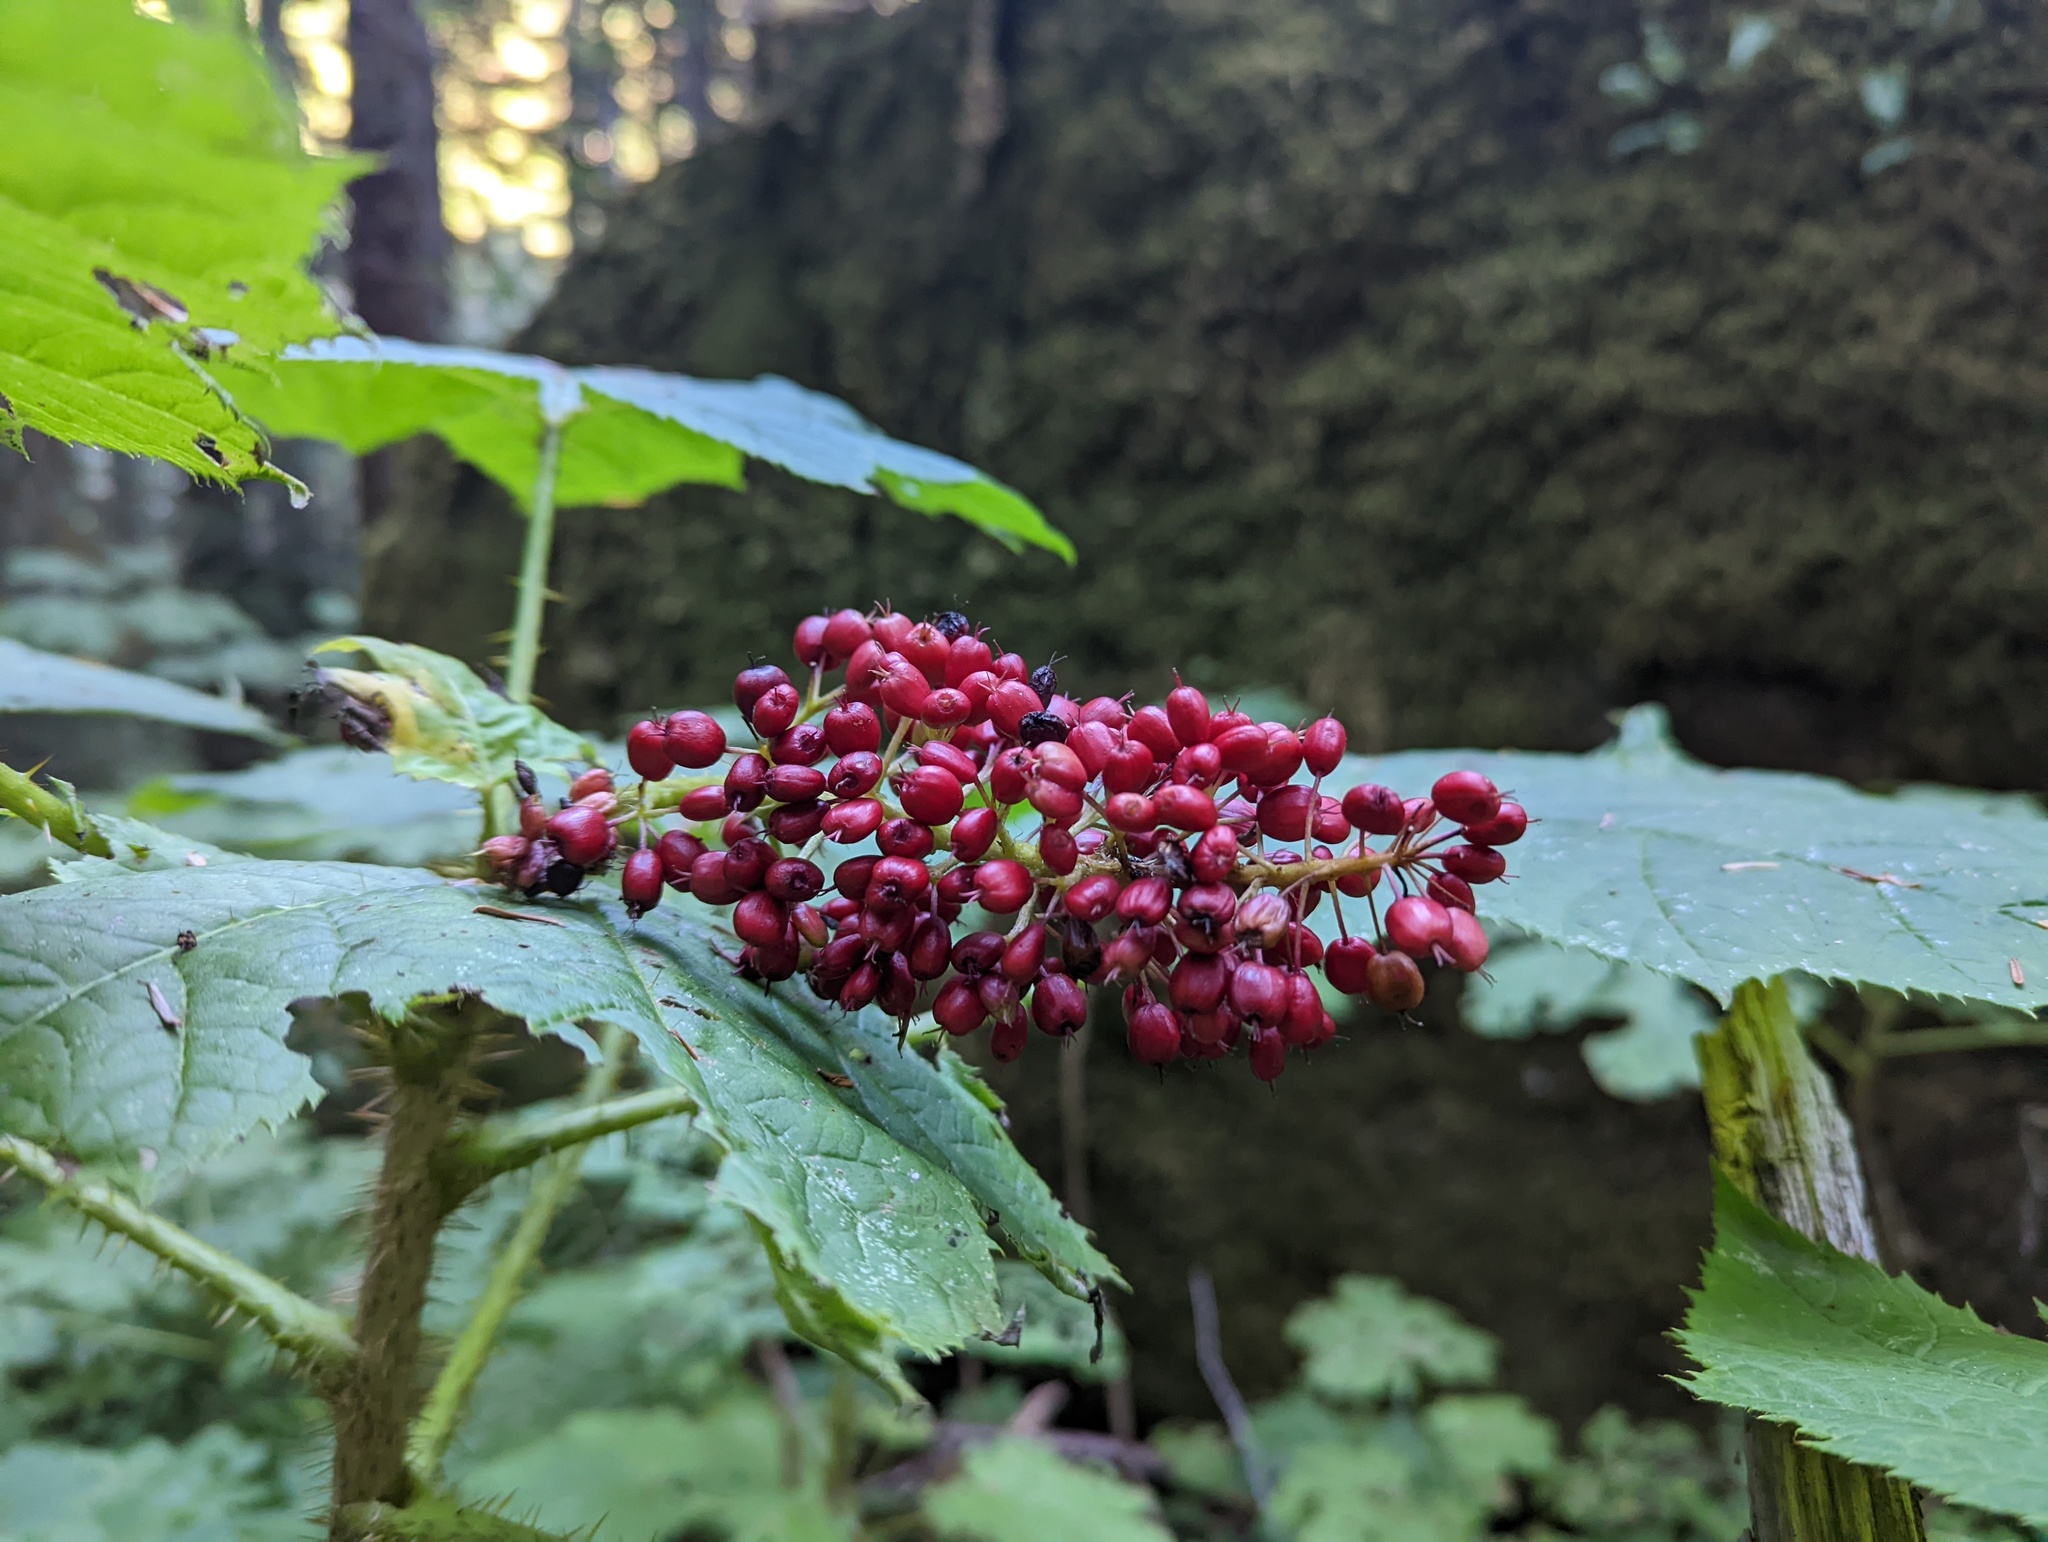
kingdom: Plantae
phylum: Tracheophyta
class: Magnoliopsida
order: Apiales
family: Araliaceae
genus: Oplopanax
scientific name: Oplopanax horridus
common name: Devil's walking-stick
